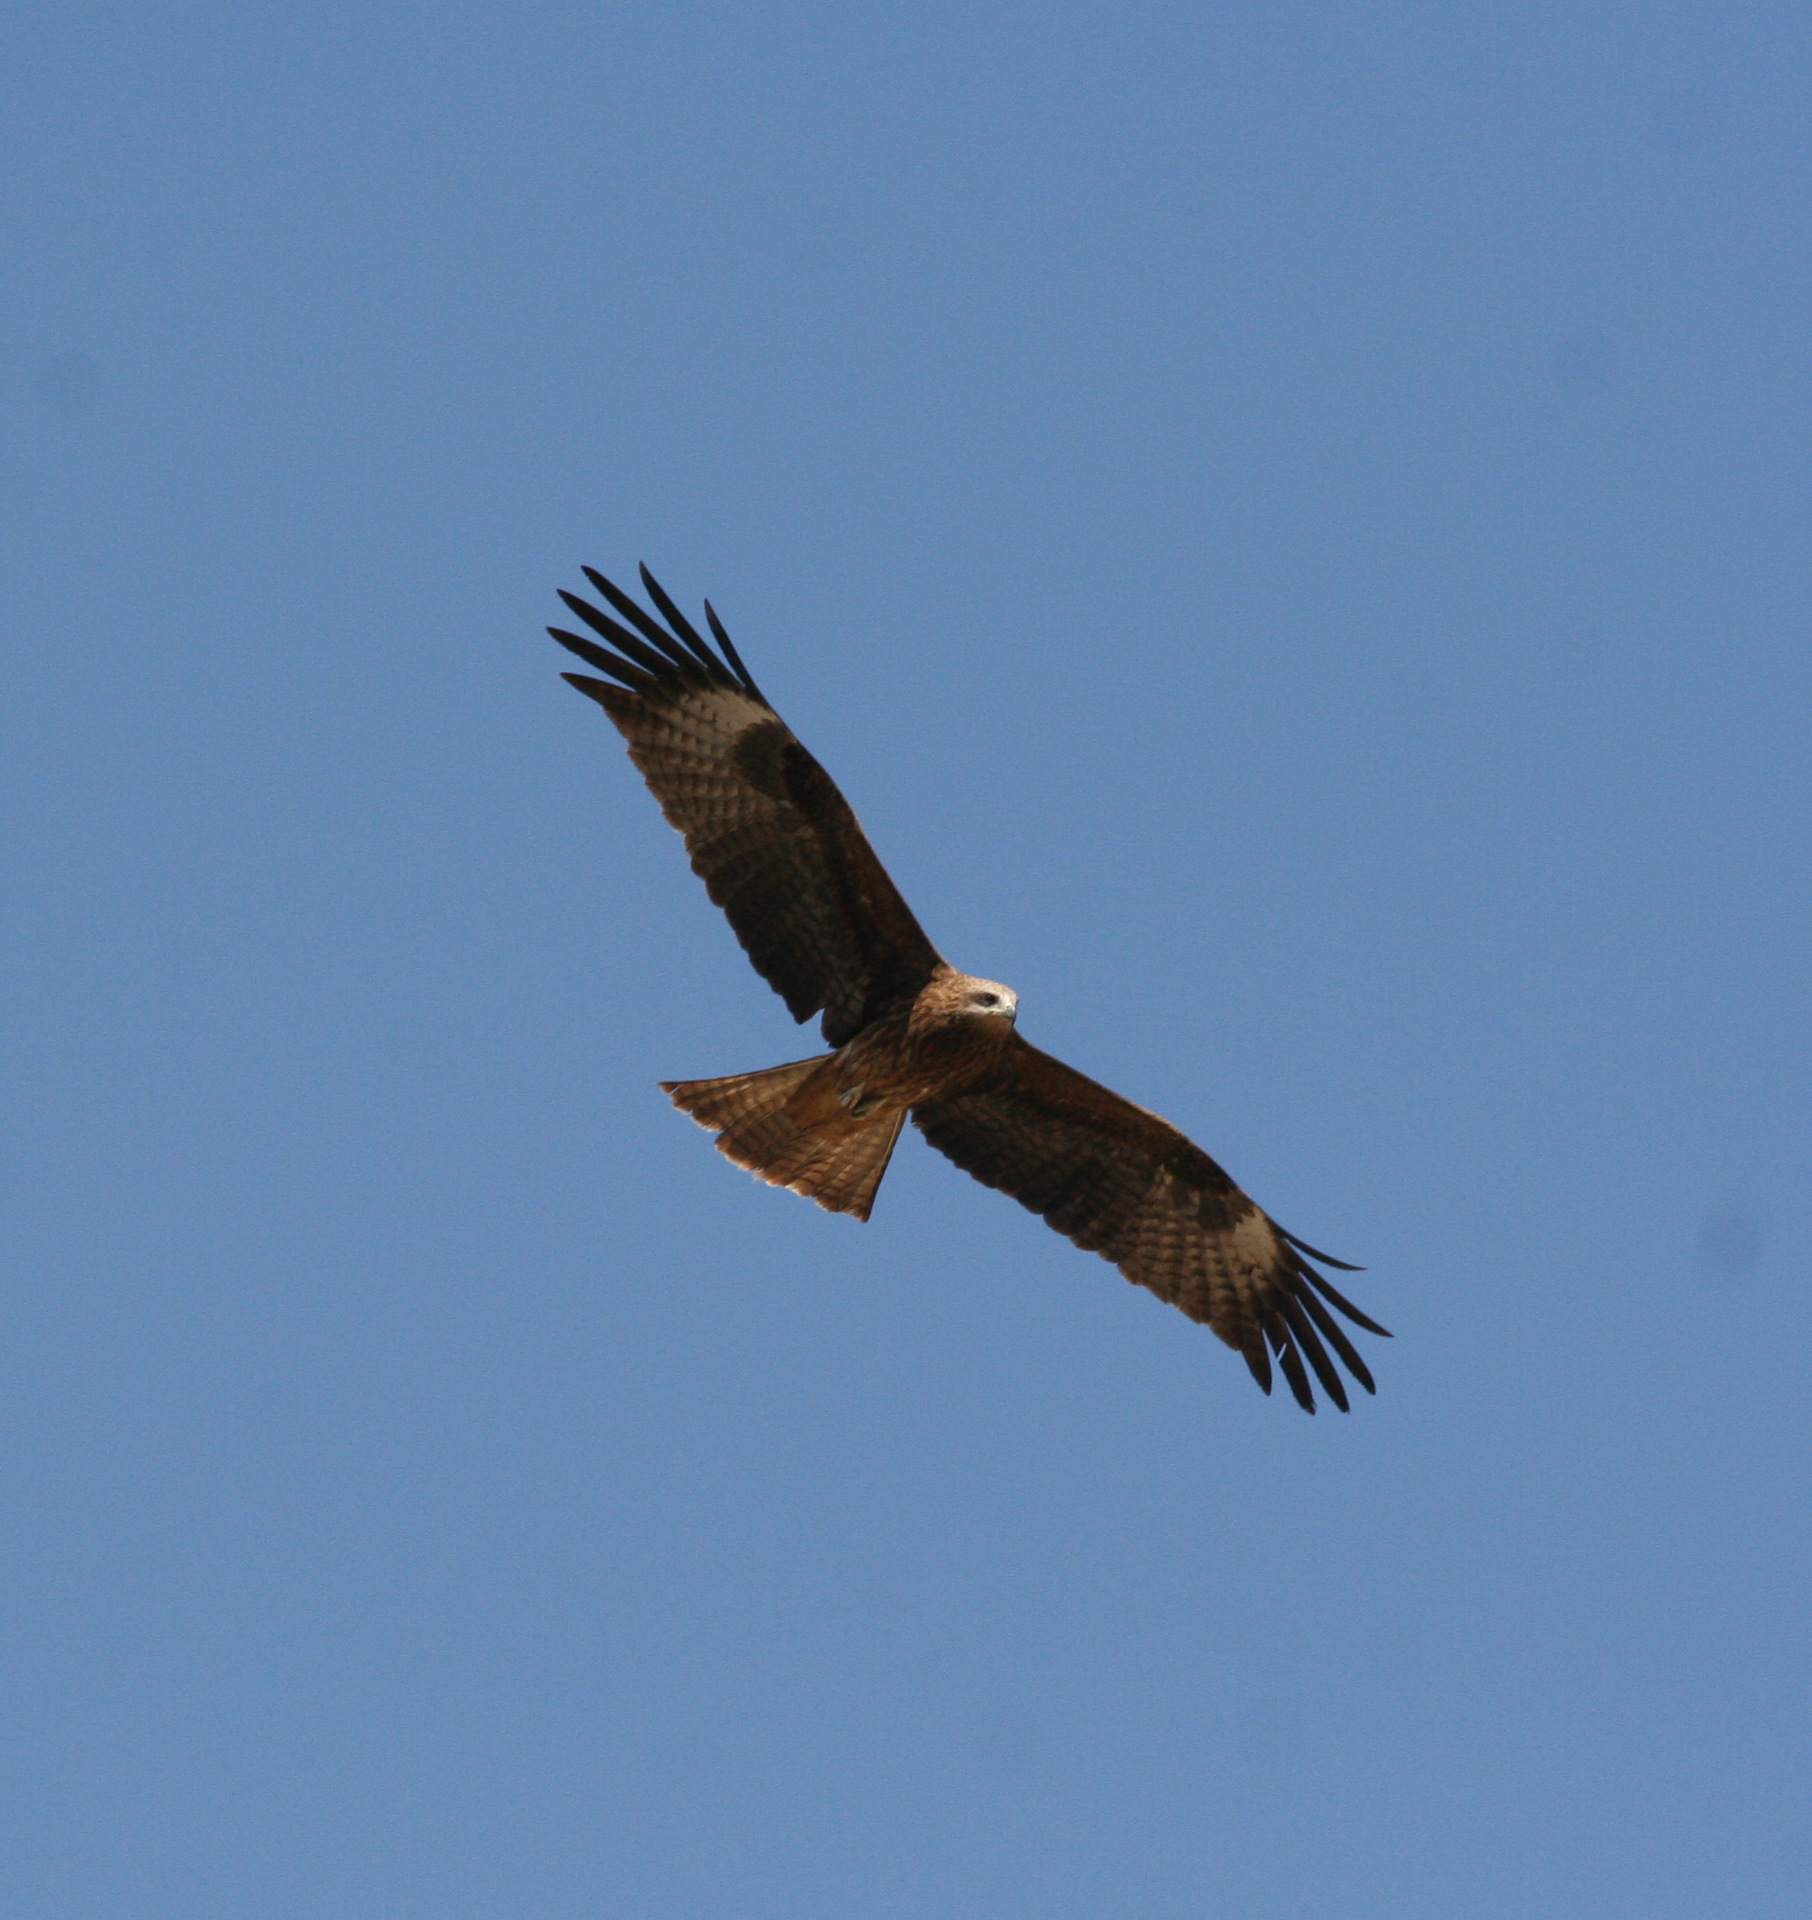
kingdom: Animalia
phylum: Chordata
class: Aves
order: Accipitriformes
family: Accipitridae
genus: Milvus
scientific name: Milvus migrans
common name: Black kite
